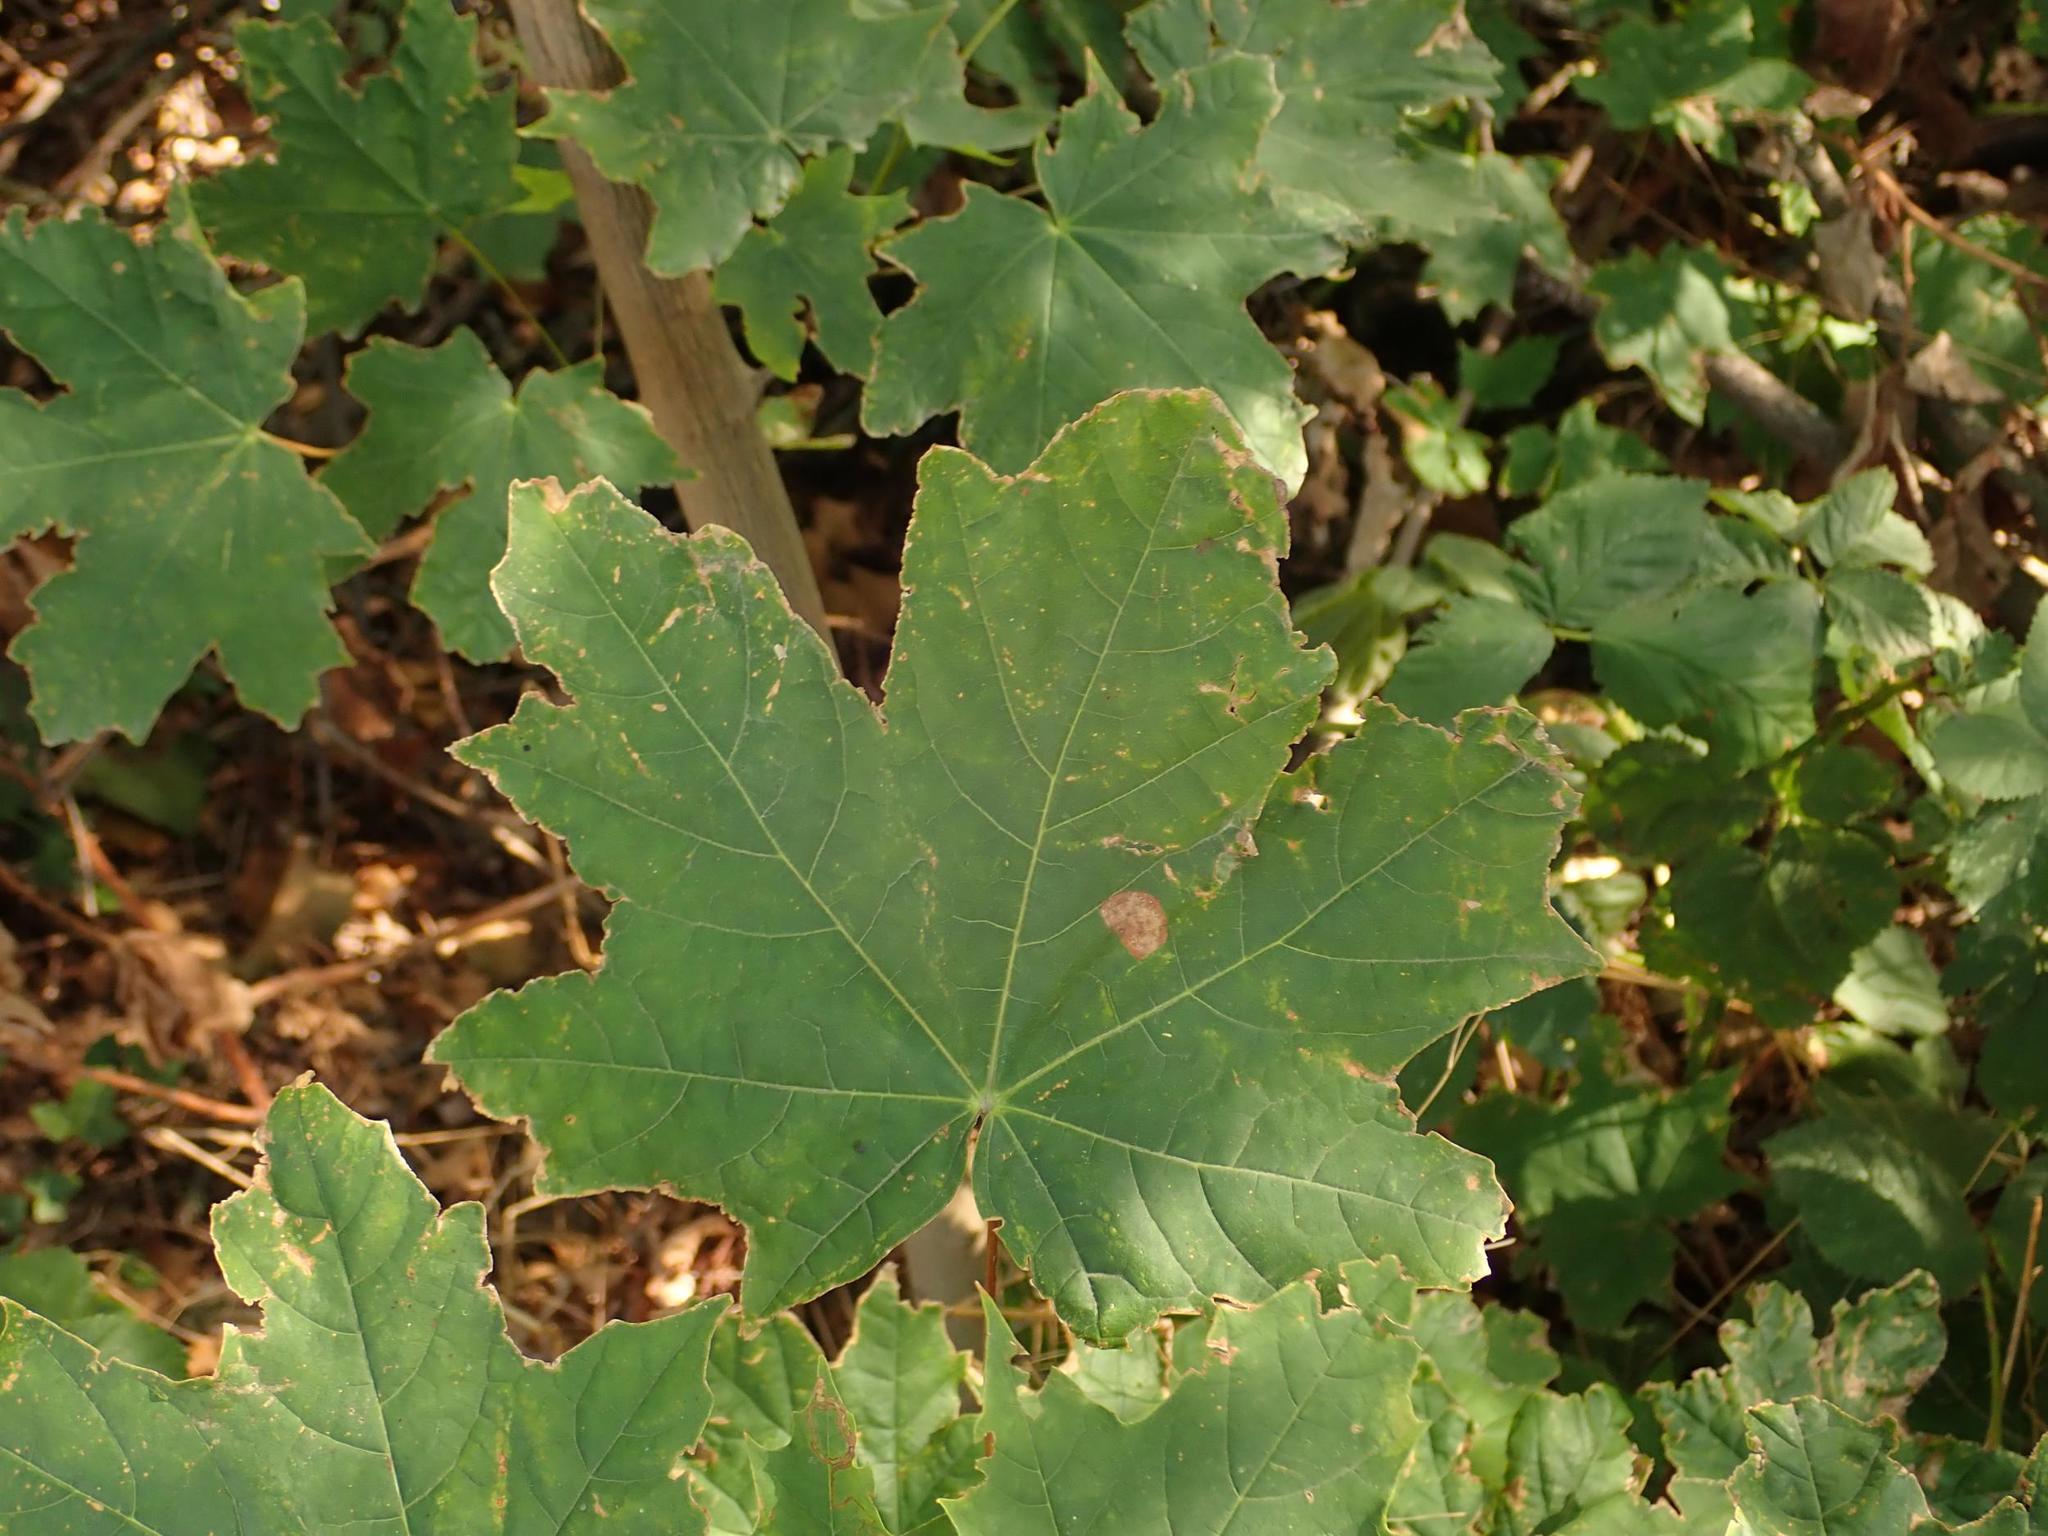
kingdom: Plantae
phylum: Tracheophyta
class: Magnoliopsida
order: Sapindales
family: Sapindaceae
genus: Acer
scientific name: Acer platanoides
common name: Norway maple
